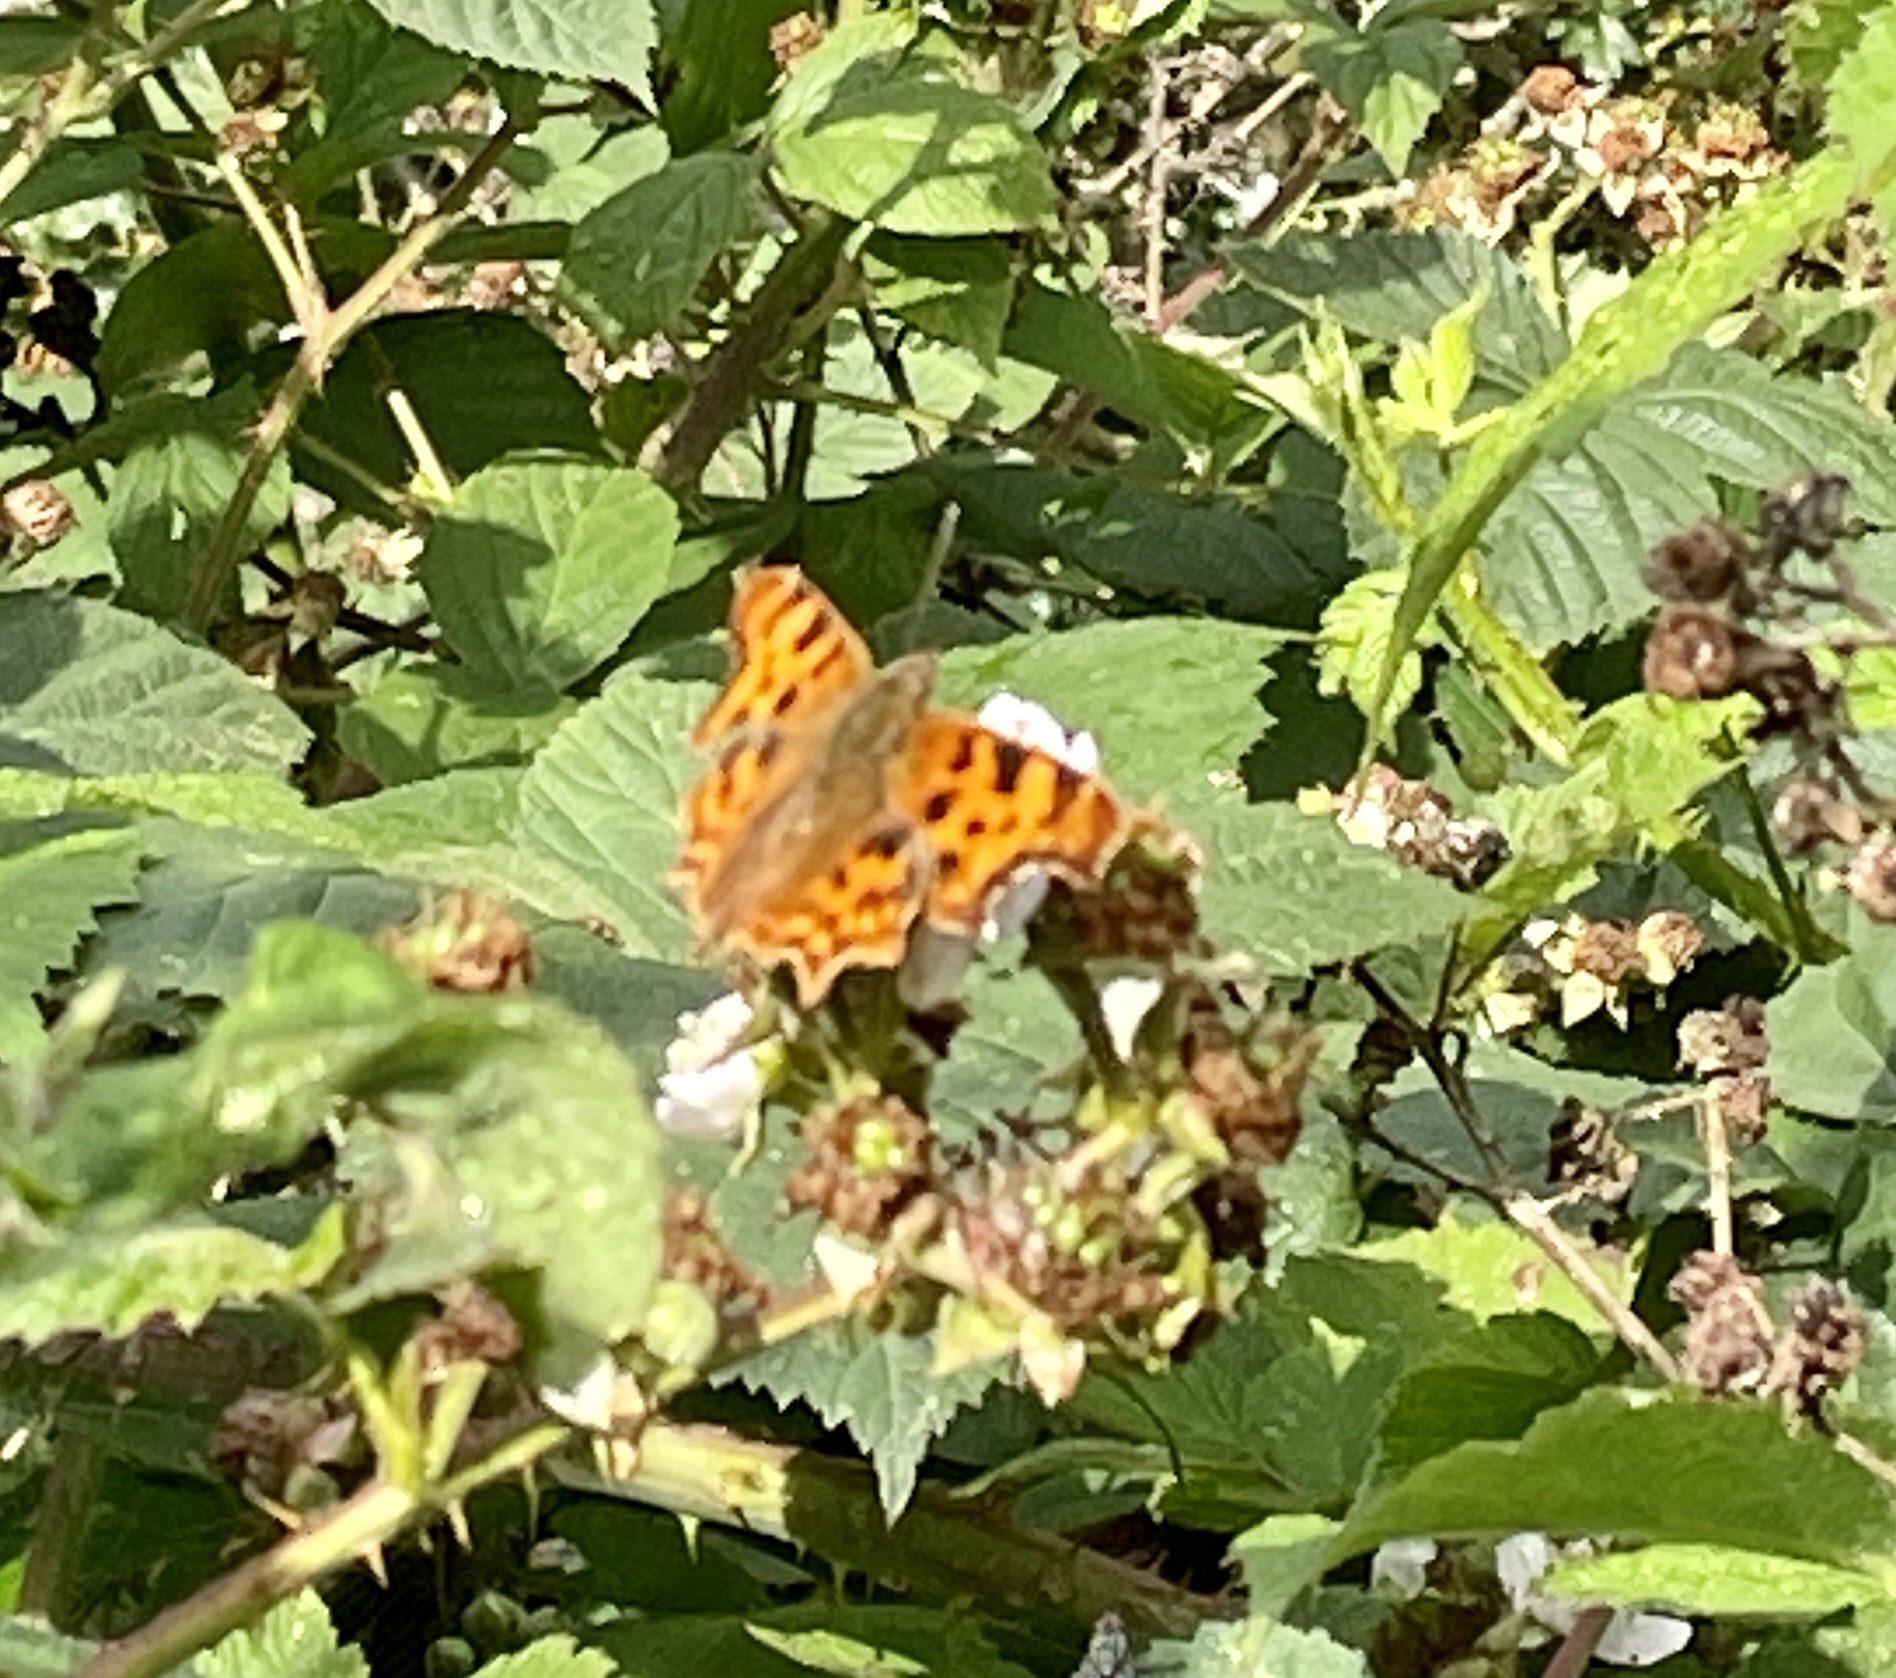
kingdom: Animalia
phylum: Arthropoda
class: Insecta
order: Lepidoptera
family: Nymphalidae
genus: Polygonia
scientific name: Polygonia c-album
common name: Comma
